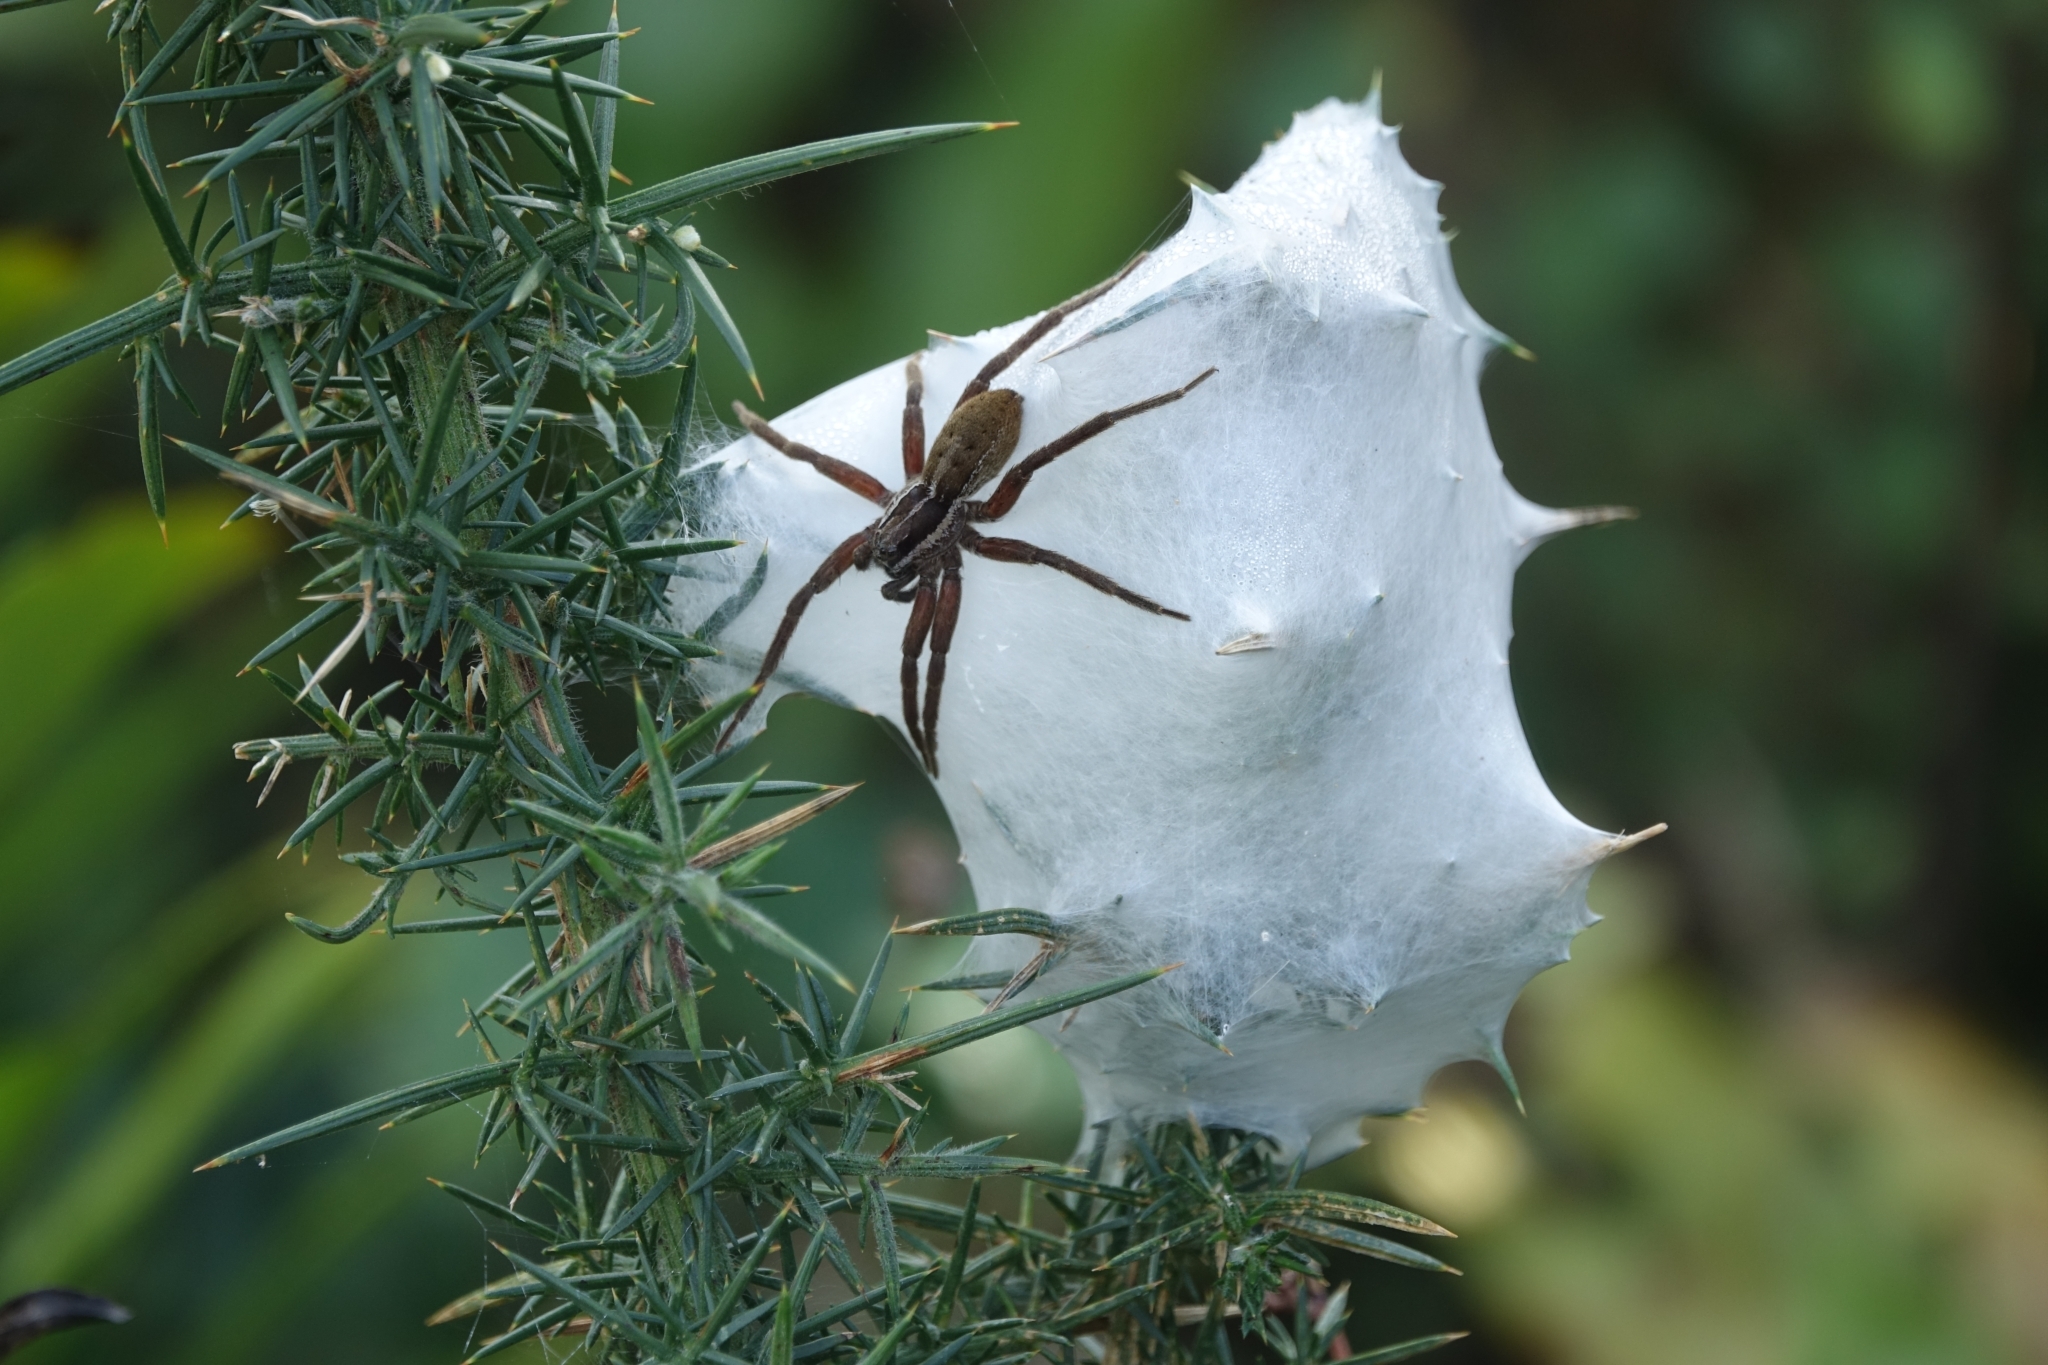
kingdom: Animalia
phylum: Arthropoda
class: Arachnida
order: Araneae
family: Pisauridae
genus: Dolomedes
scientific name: Dolomedes minor
